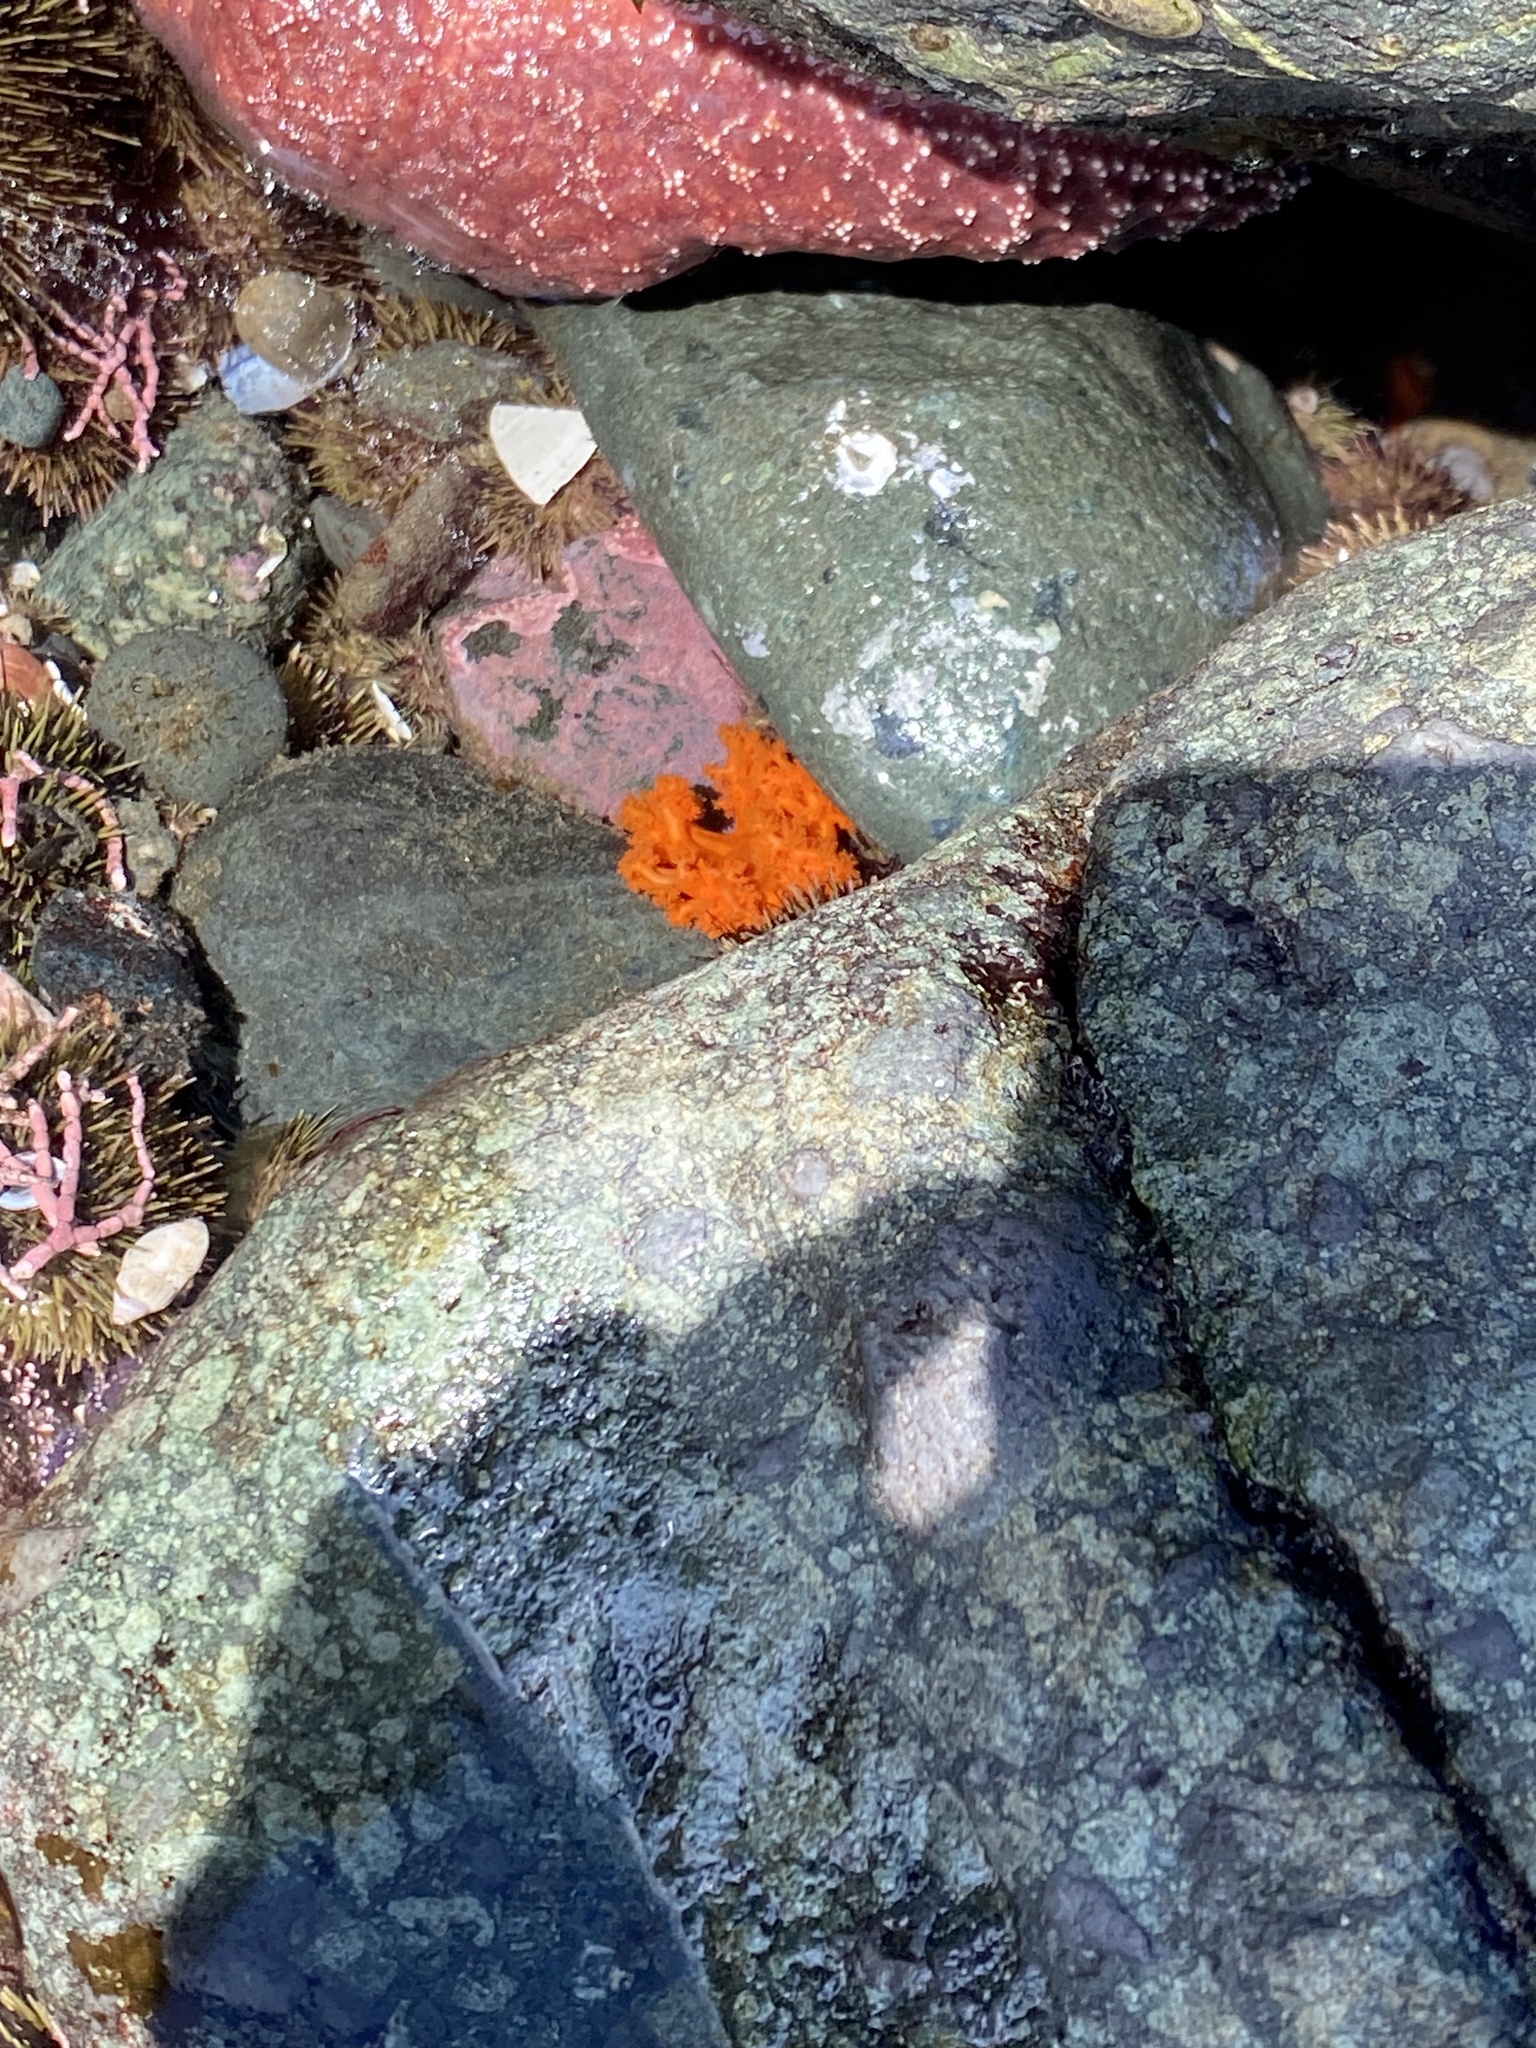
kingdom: Animalia
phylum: Echinodermata
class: Holothuroidea
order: Dendrochirotida
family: Cucumariidae
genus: Cucumaria
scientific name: Cucumaria miniata
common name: Orange sea cucumber
